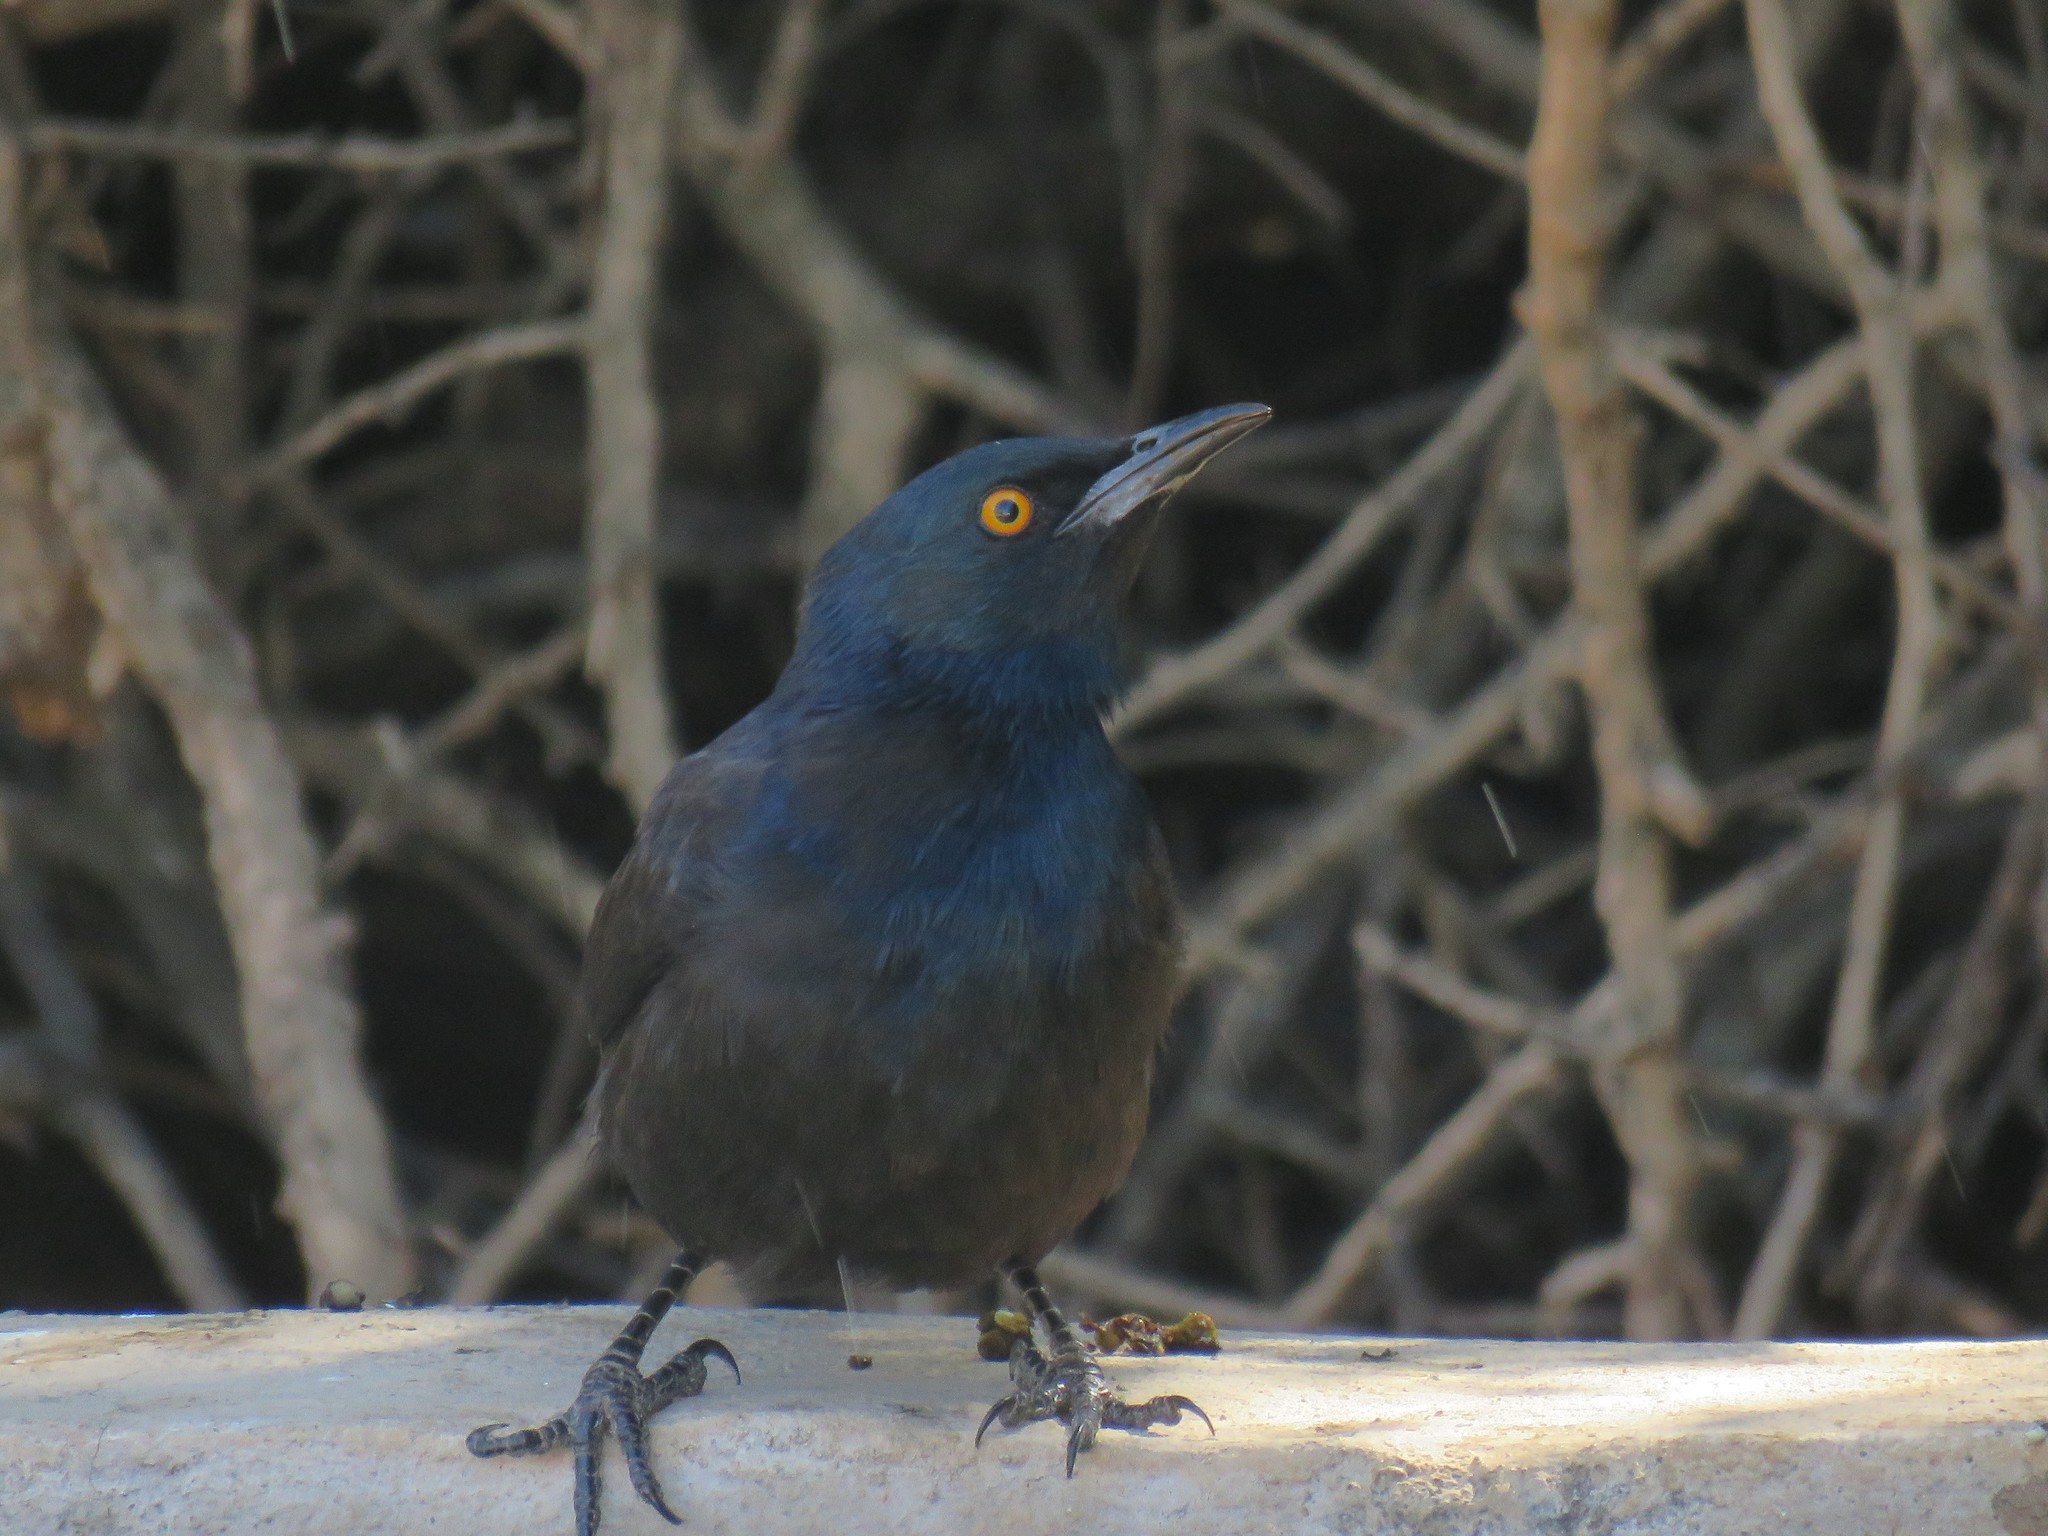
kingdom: Animalia
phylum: Chordata
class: Aves
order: Passeriformes
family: Sturnidae
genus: Onychognathus
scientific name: Onychognathus nabouroup
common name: Pale-winged starling
